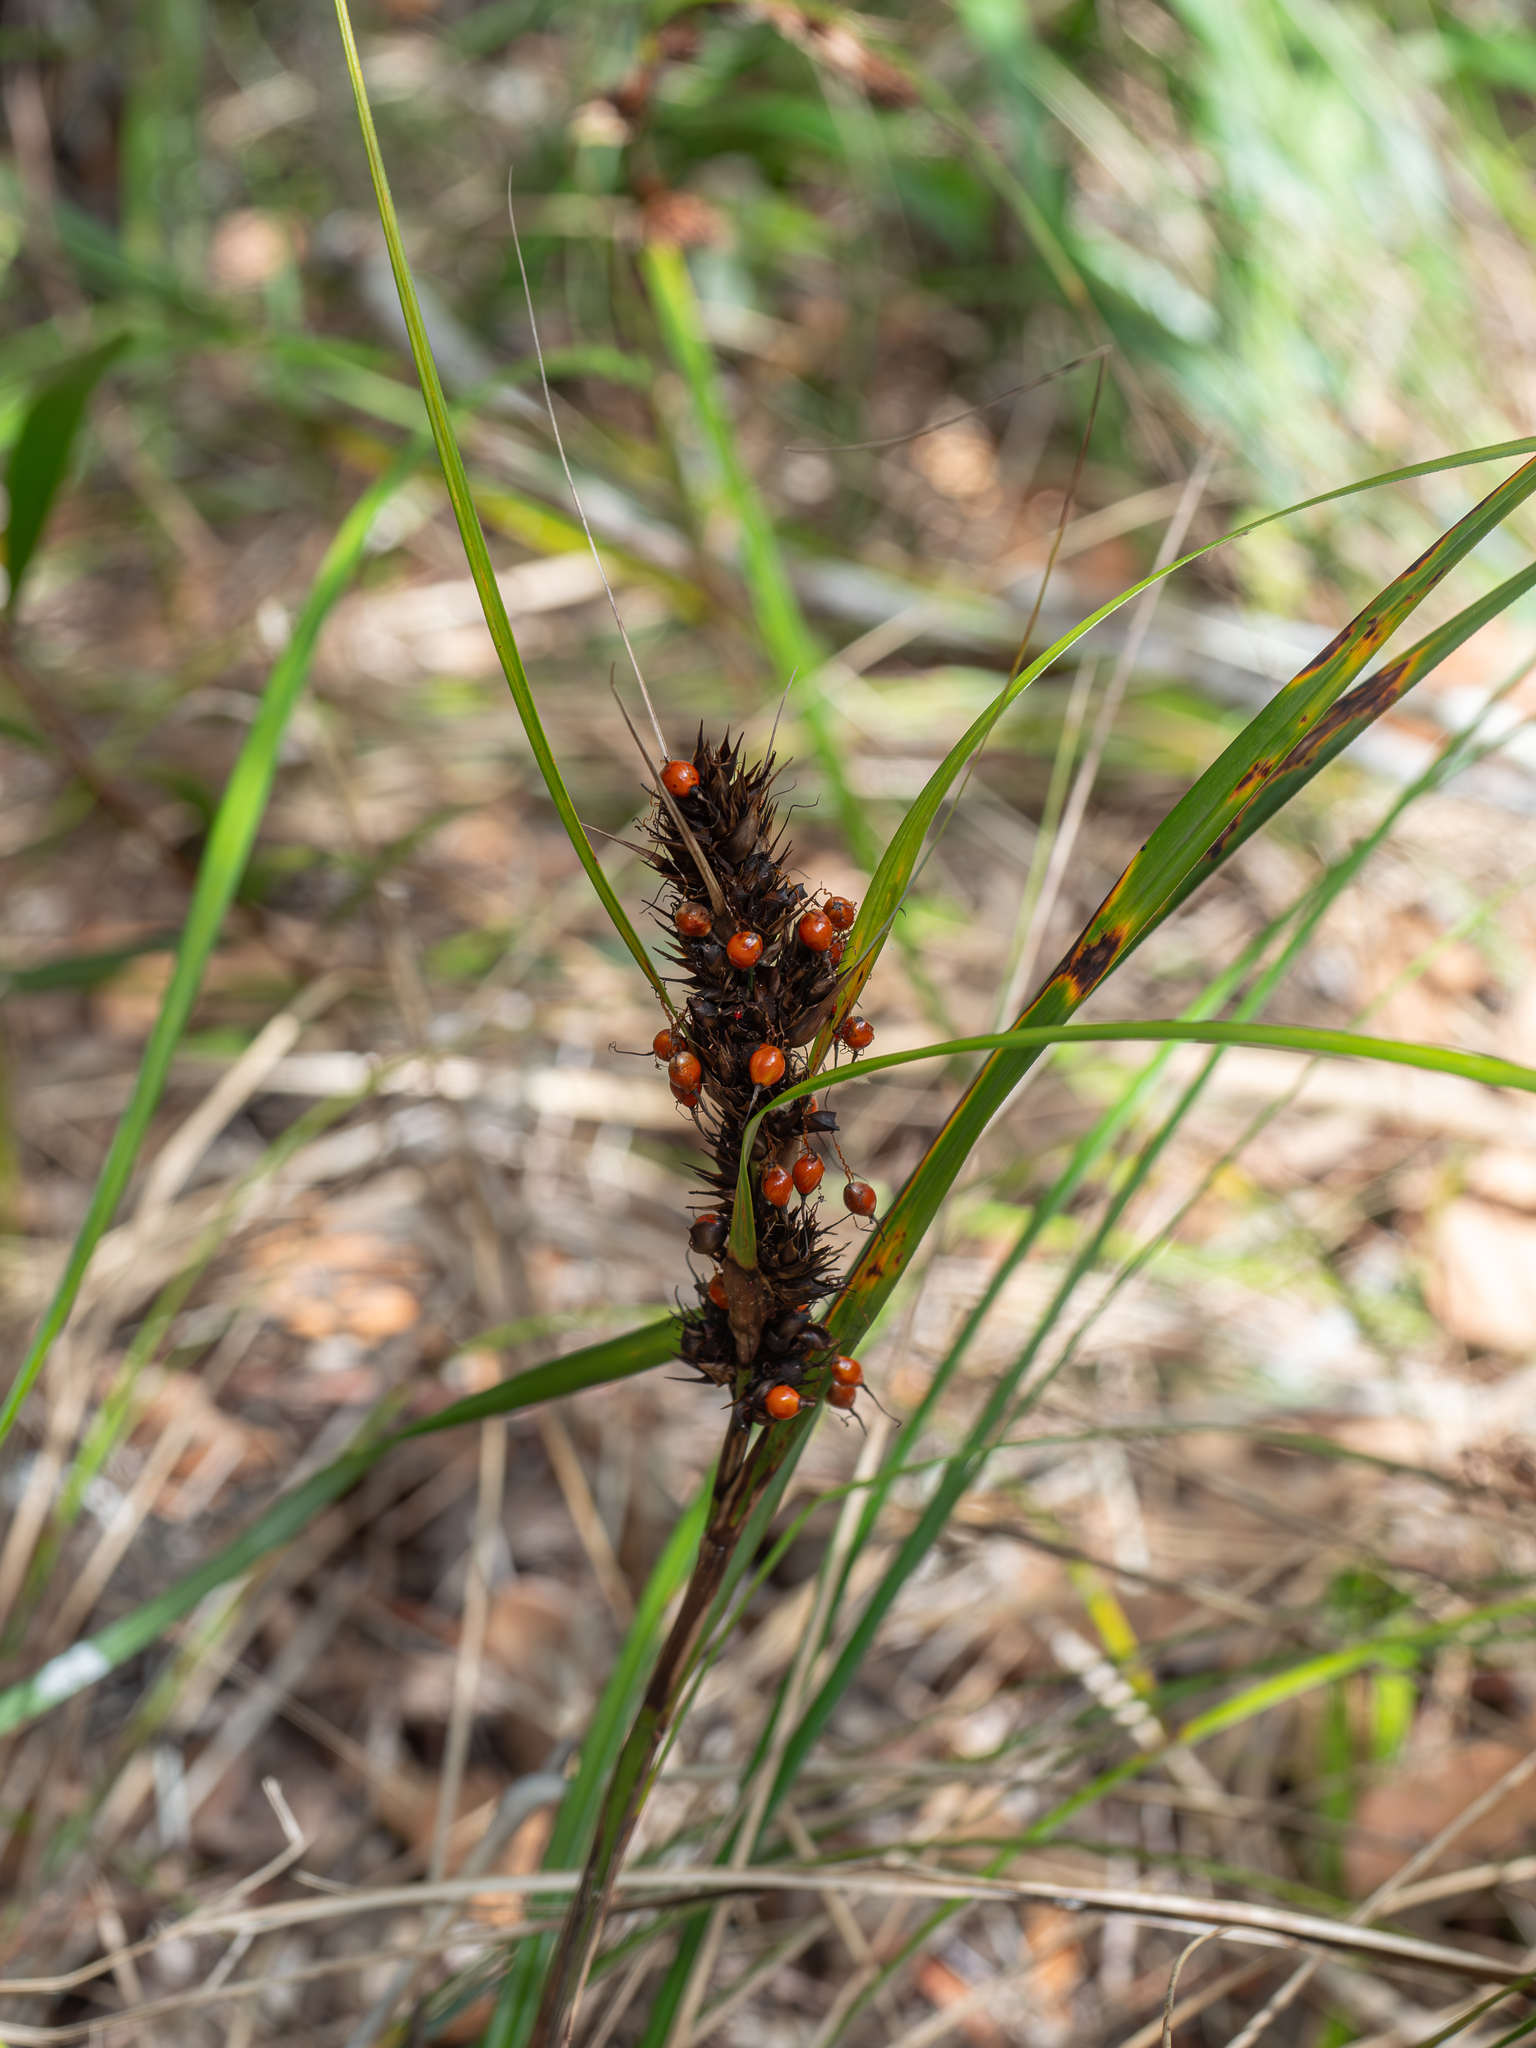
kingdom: Plantae
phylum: Tracheophyta
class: Liliopsida
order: Poales
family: Cyperaceae
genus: Gahnia
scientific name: Gahnia aspera
